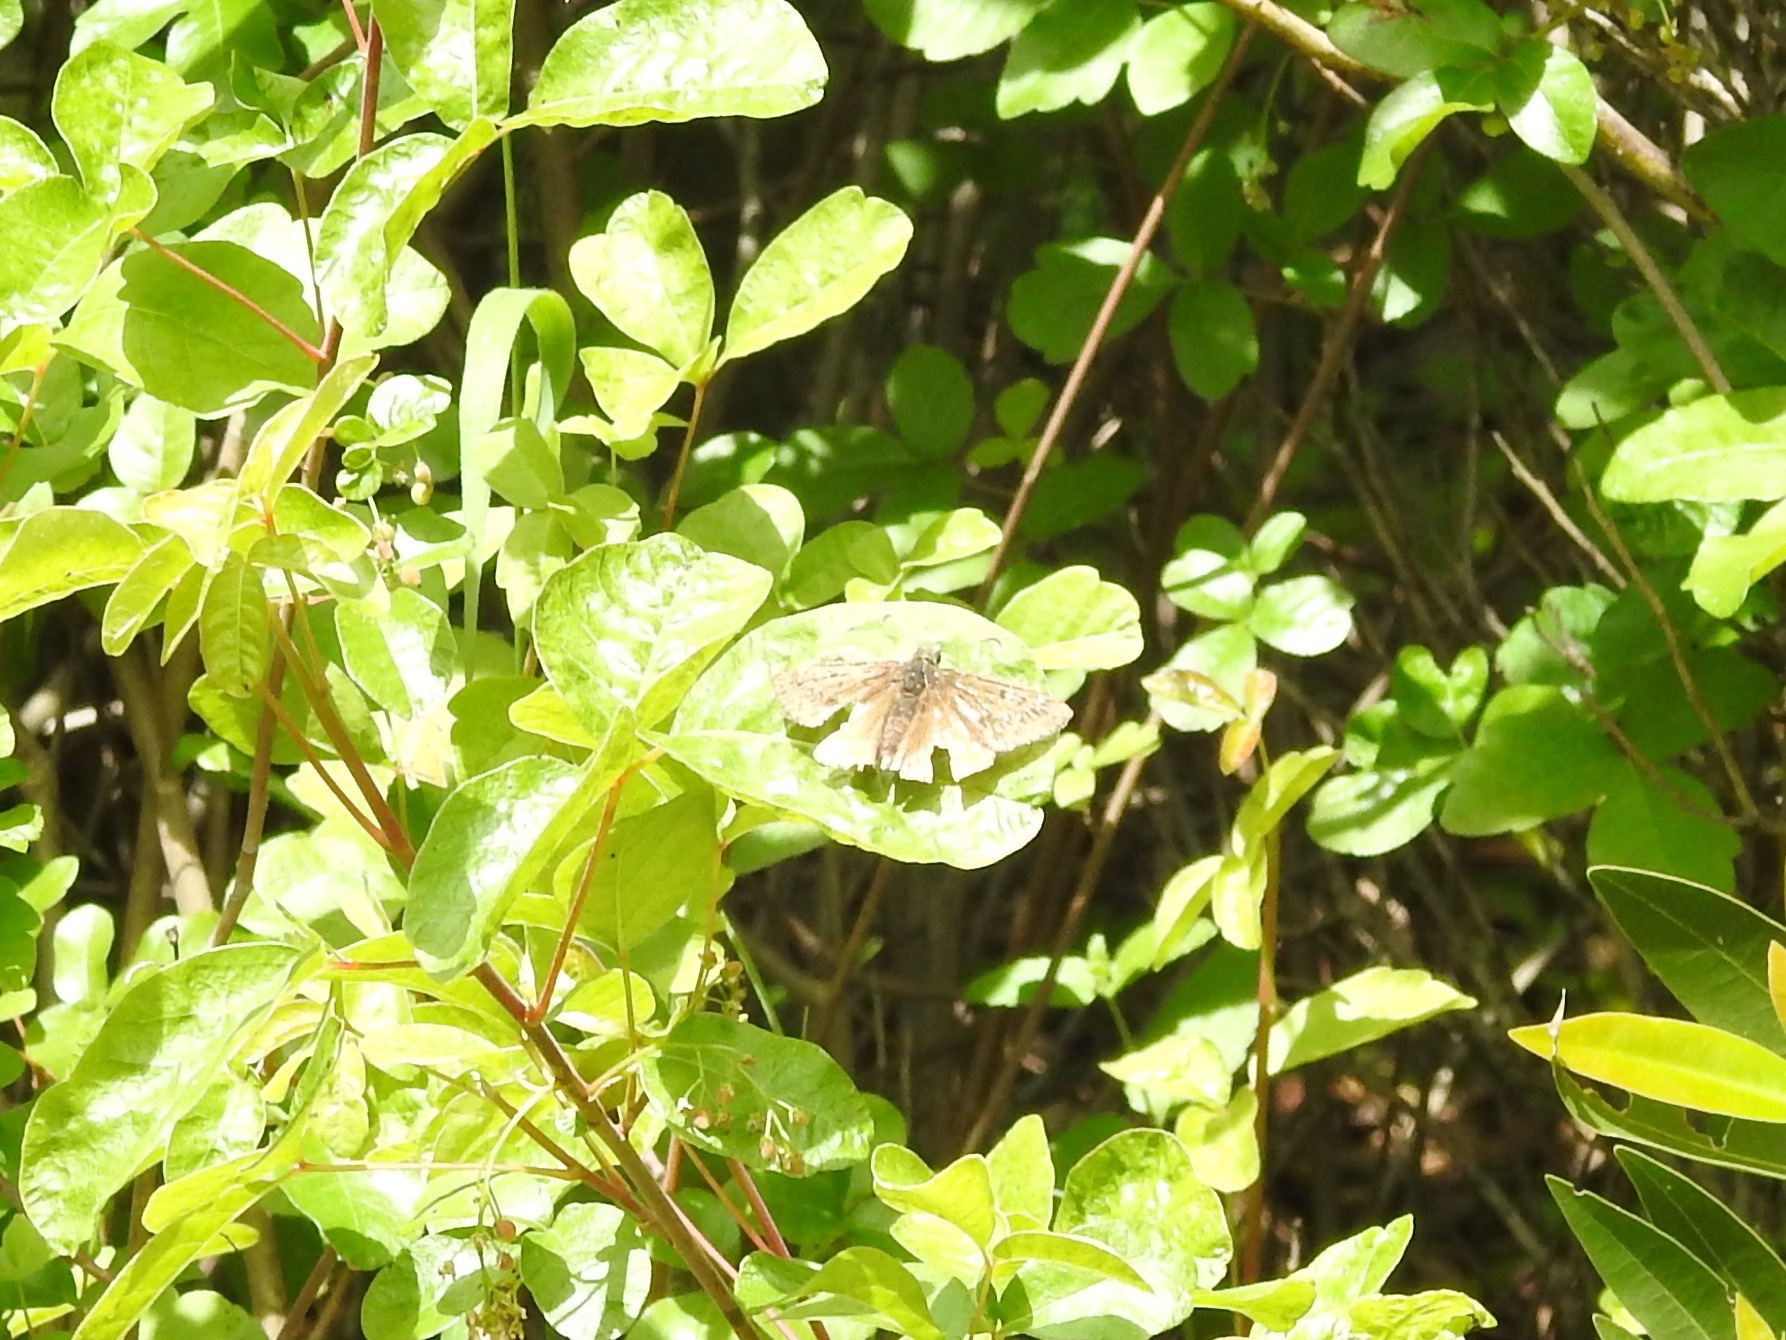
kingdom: Plantae
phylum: Tracheophyta
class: Magnoliopsida
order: Sapindales
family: Anacardiaceae
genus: Toxicodendron
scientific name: Toxicodendron diversilobum
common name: Pacific poison-oak
